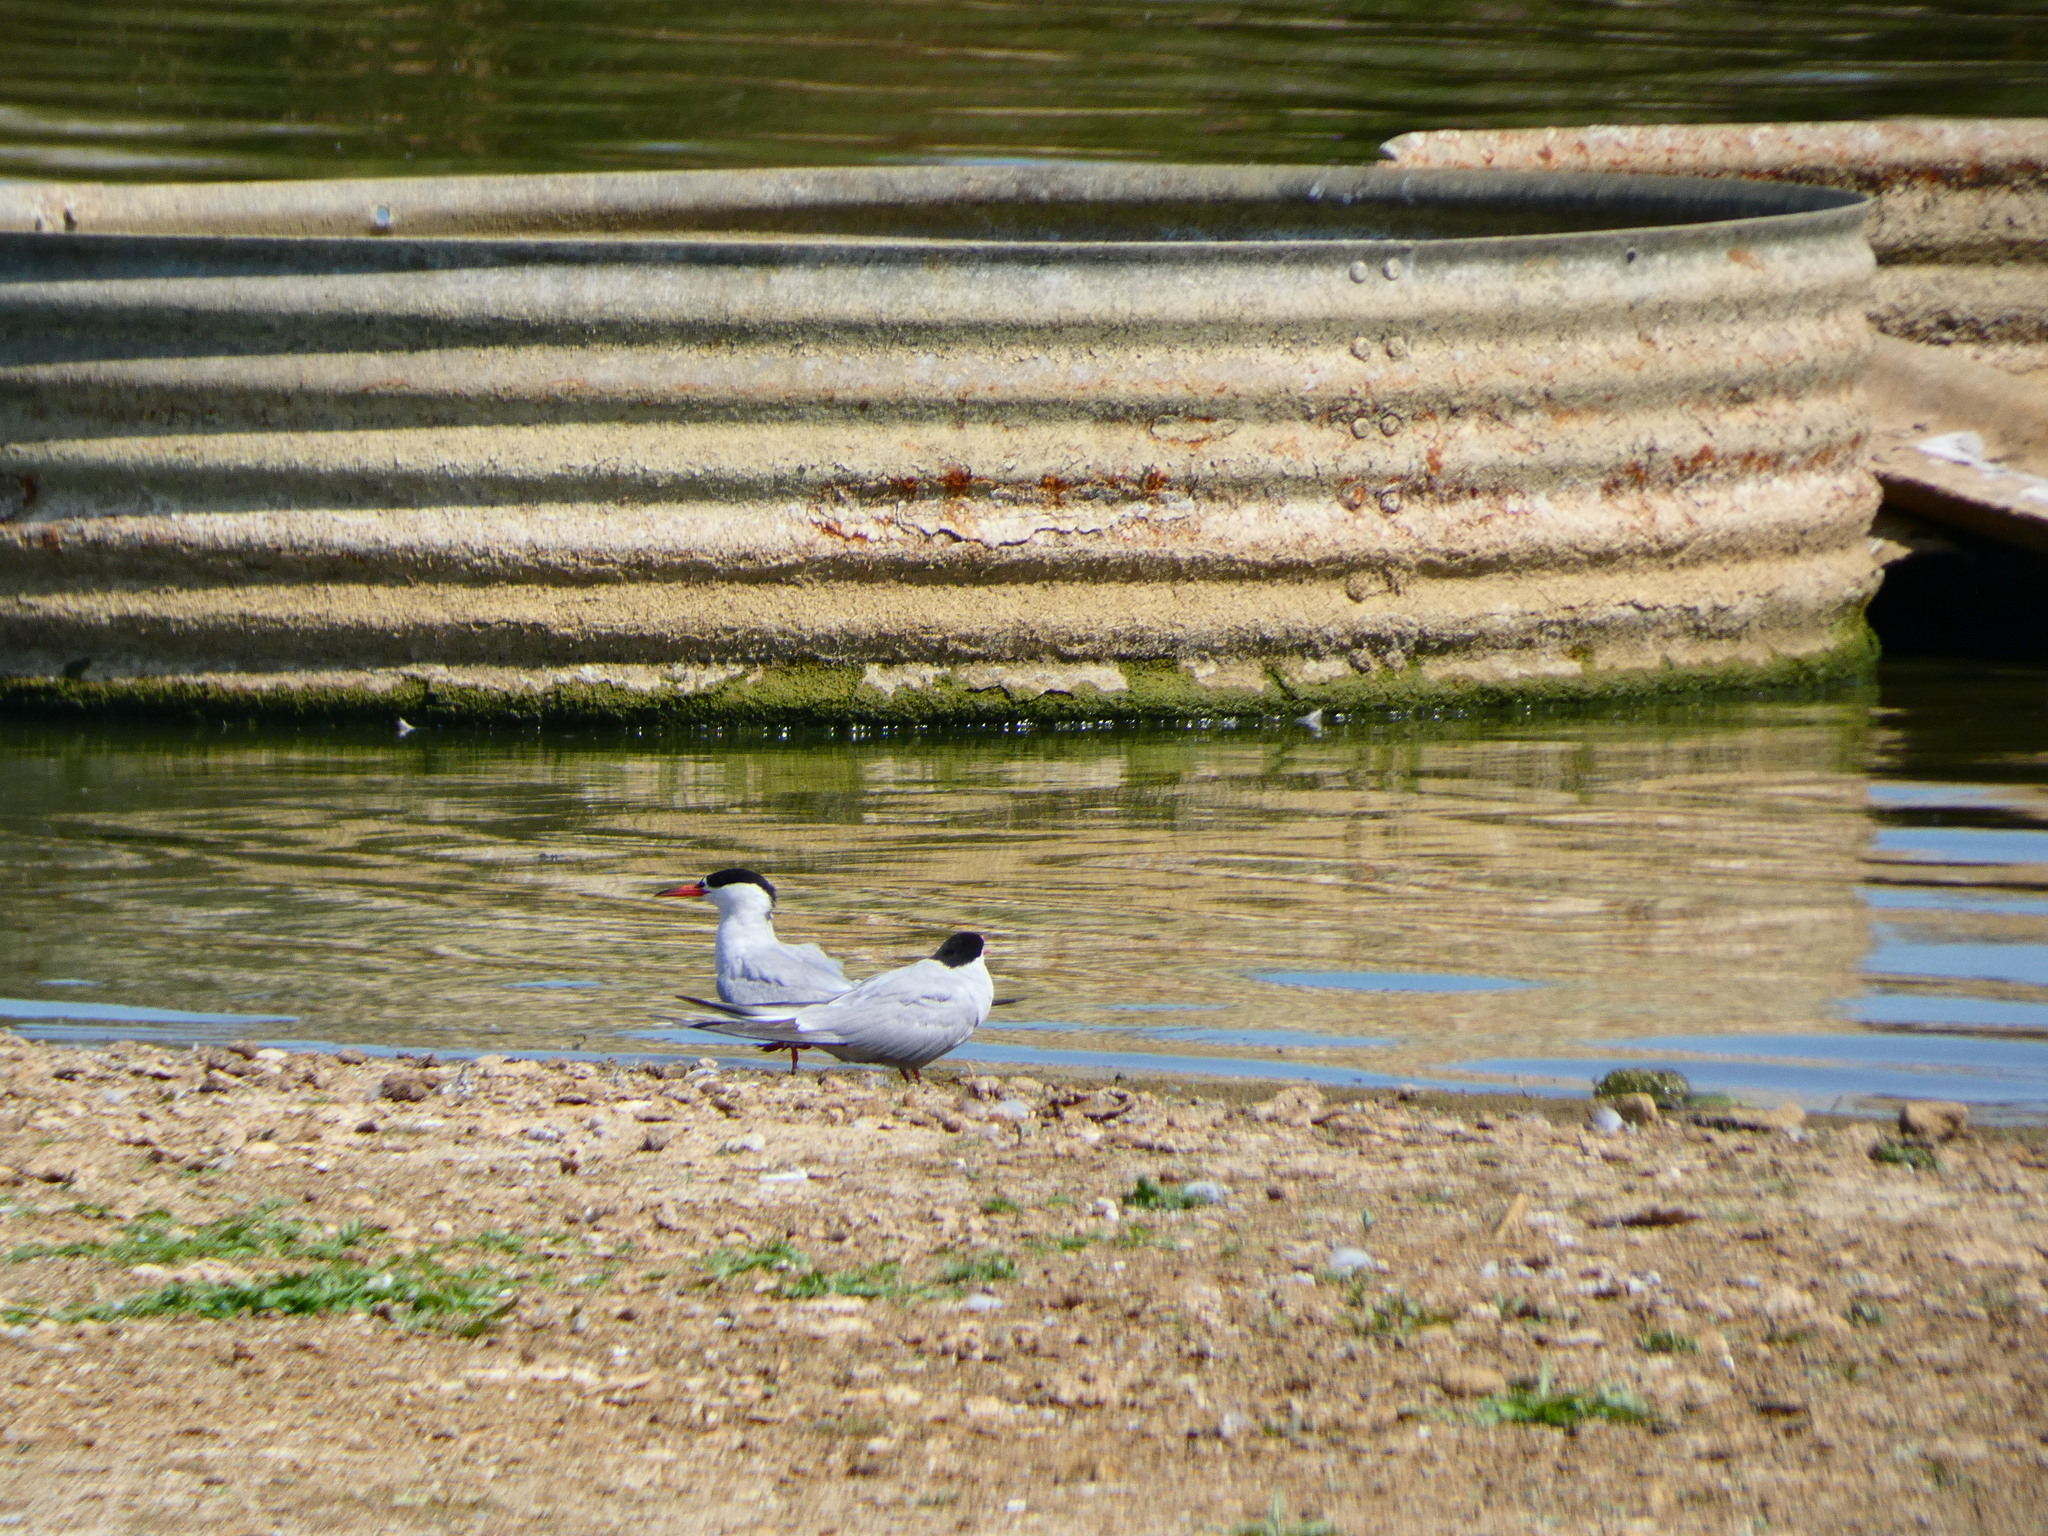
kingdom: Animalia
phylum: Chordata
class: Aves
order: Charadriiformes
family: Laridae
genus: Sterna
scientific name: Sterna hirundo
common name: Common tern
